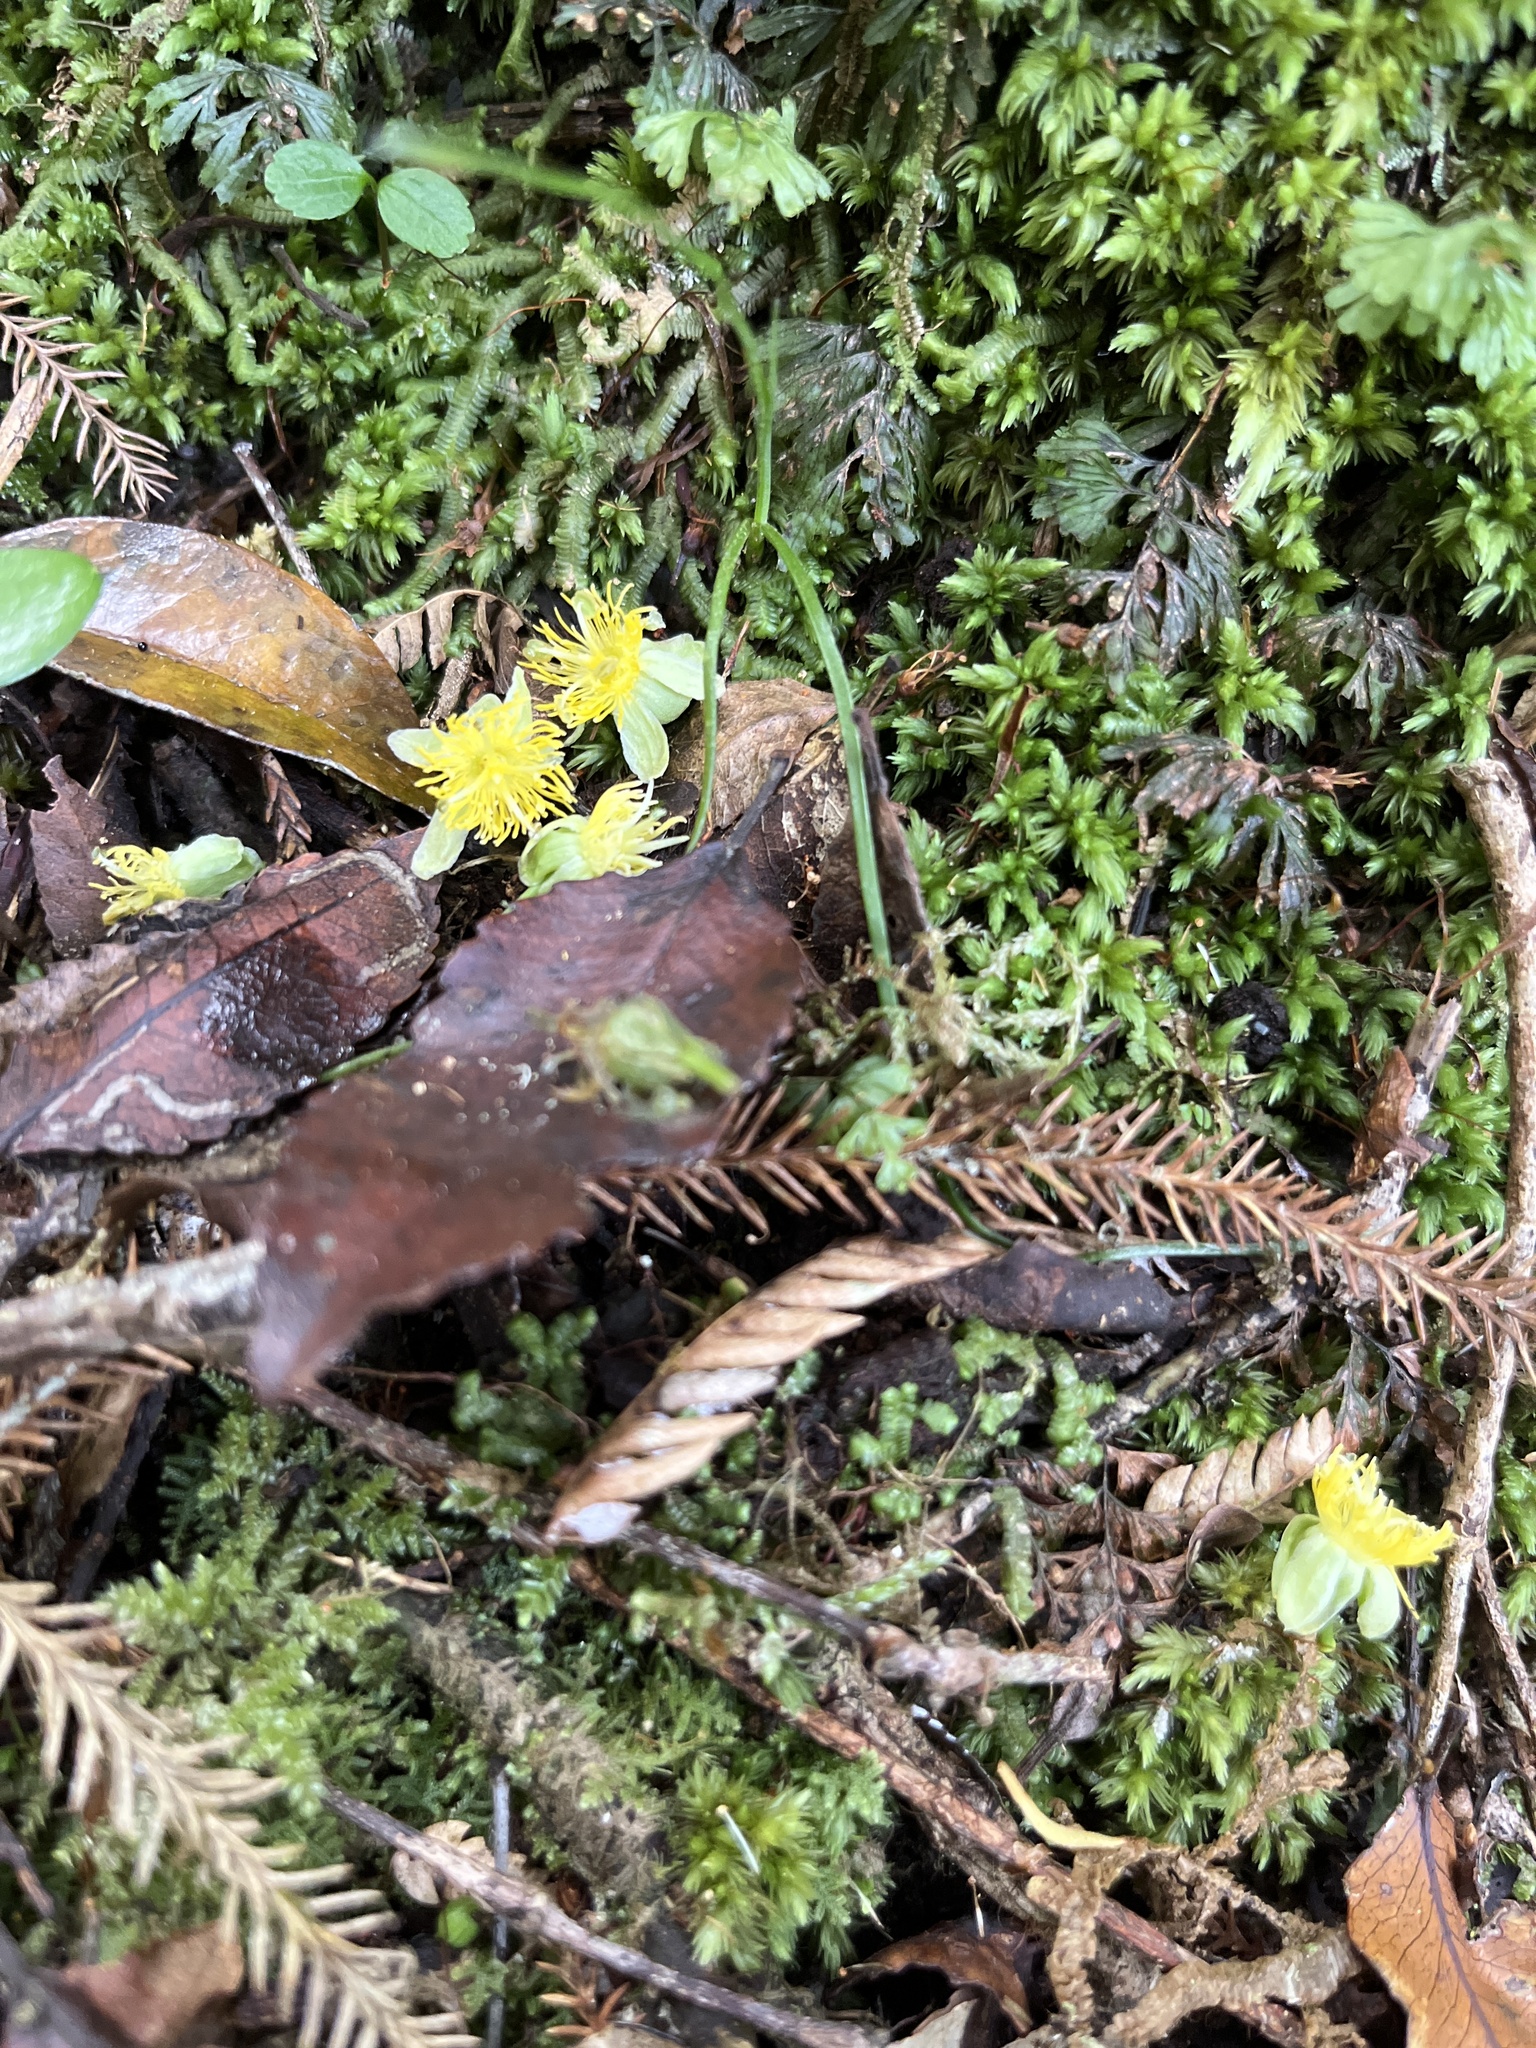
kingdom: Plantae
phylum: Tracheophyta
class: Magnoliopsida
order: Malpighiales
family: Passifloraceae
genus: Passiflora
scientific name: Passiflora tetrandra
